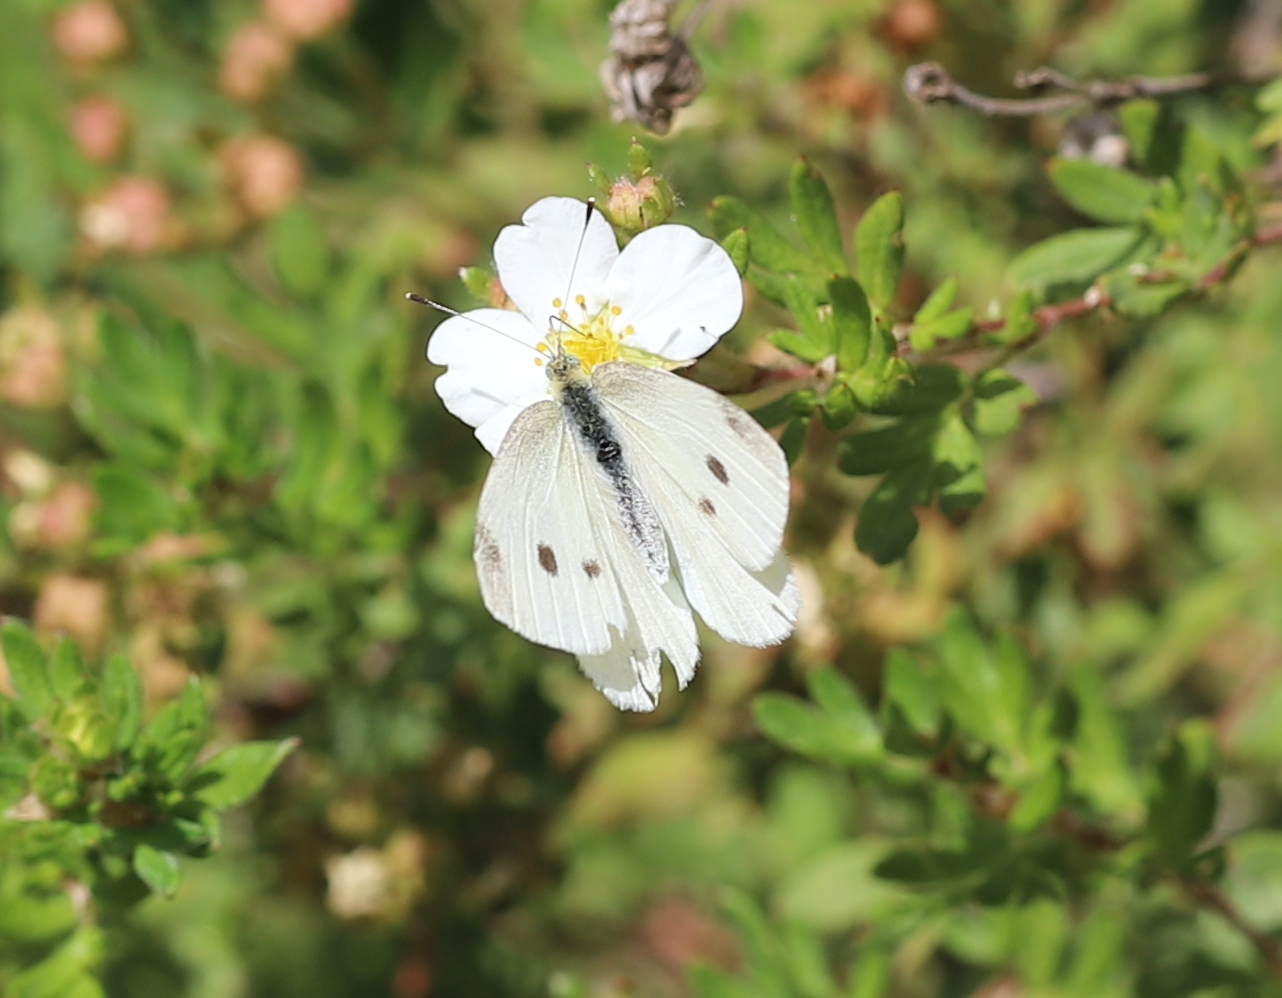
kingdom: Animalia
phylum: Arthropoda
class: Insecta
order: Lepidoptera
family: Pieridae
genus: Pieris
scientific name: Pieris rapae
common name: Small white
